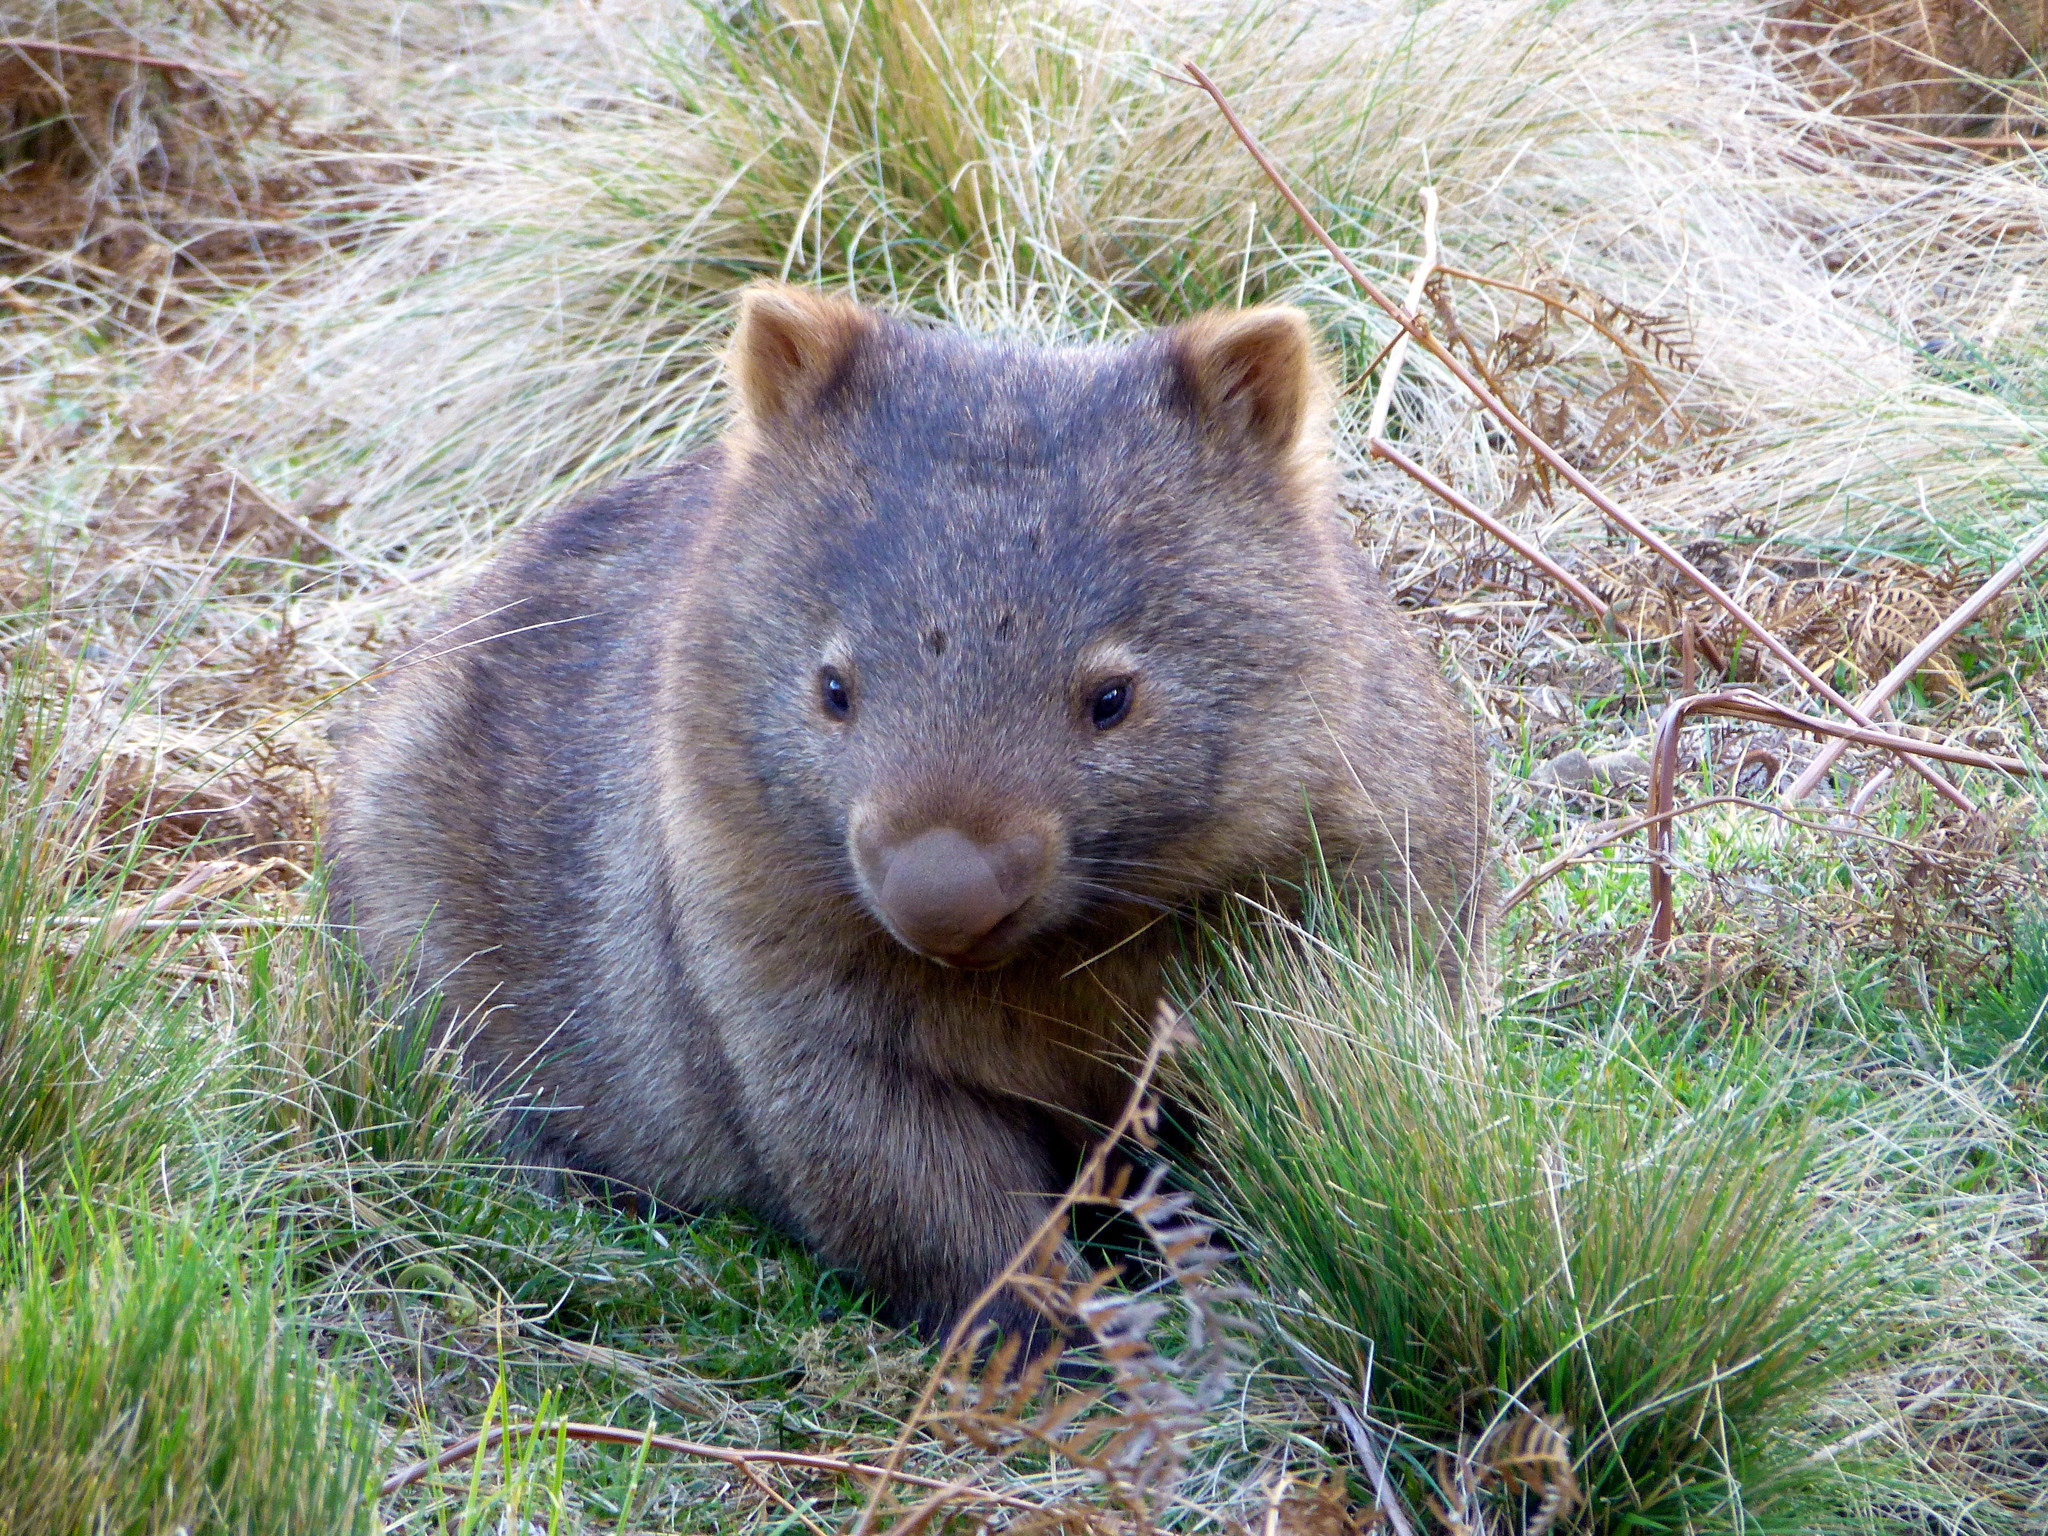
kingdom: Animalia
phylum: Chordata
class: Mammalia
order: Diprotodontia
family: Vombatidae
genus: Vombatus
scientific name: Vombatus ursinus
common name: Common wombat
